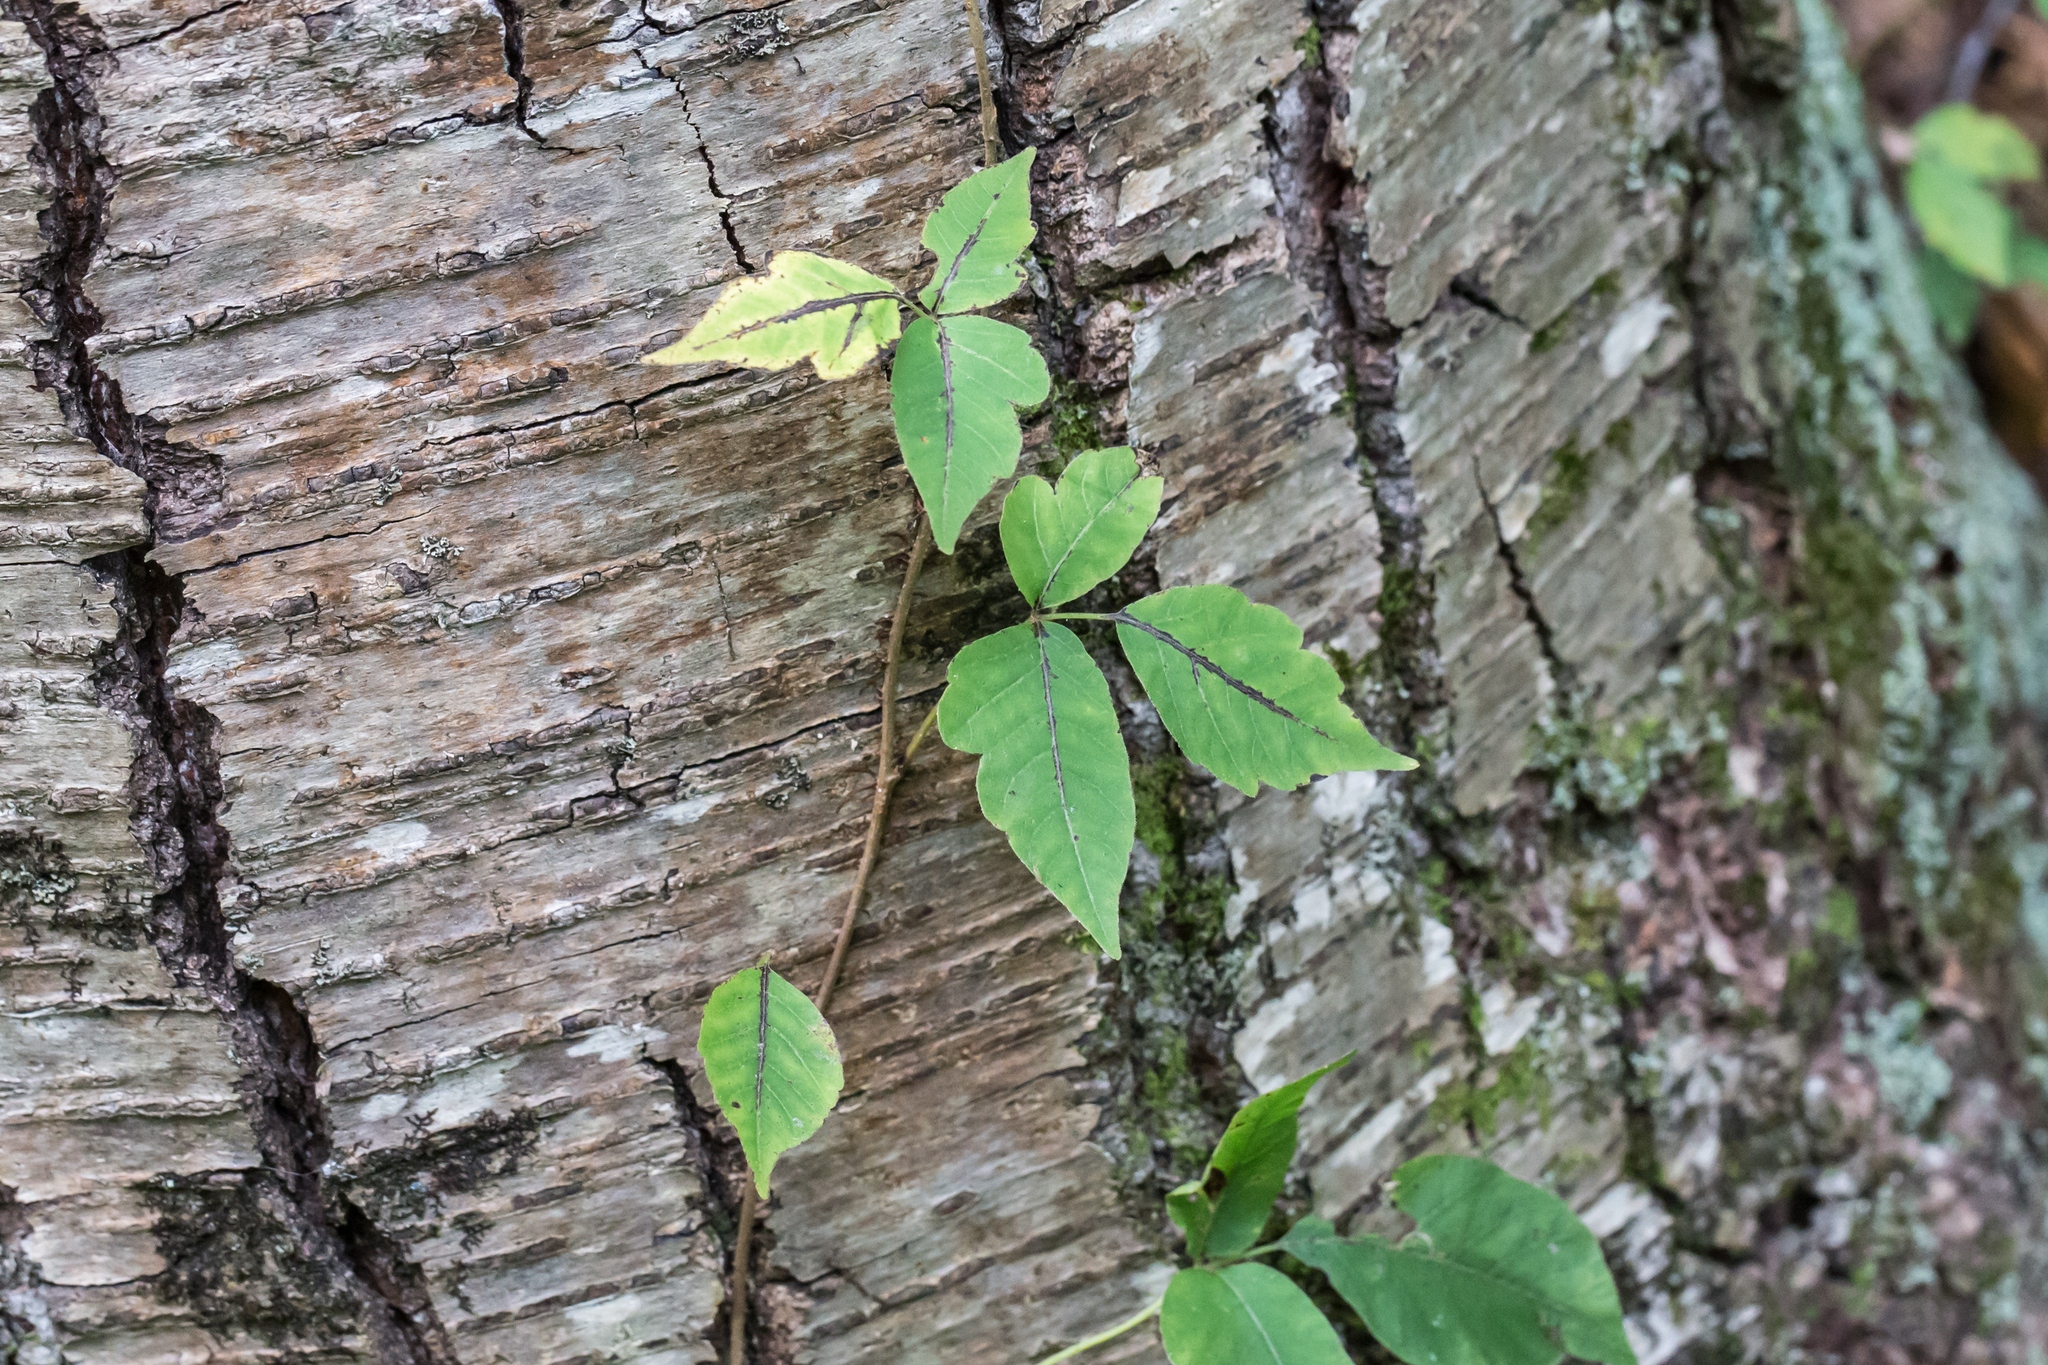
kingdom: Plantae
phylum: Tracheophyta
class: Magnoliopsida
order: Sapindales
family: Anacardiaceae
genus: Toxicodendron
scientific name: Toxicodendron radicans
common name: Poison ivy
